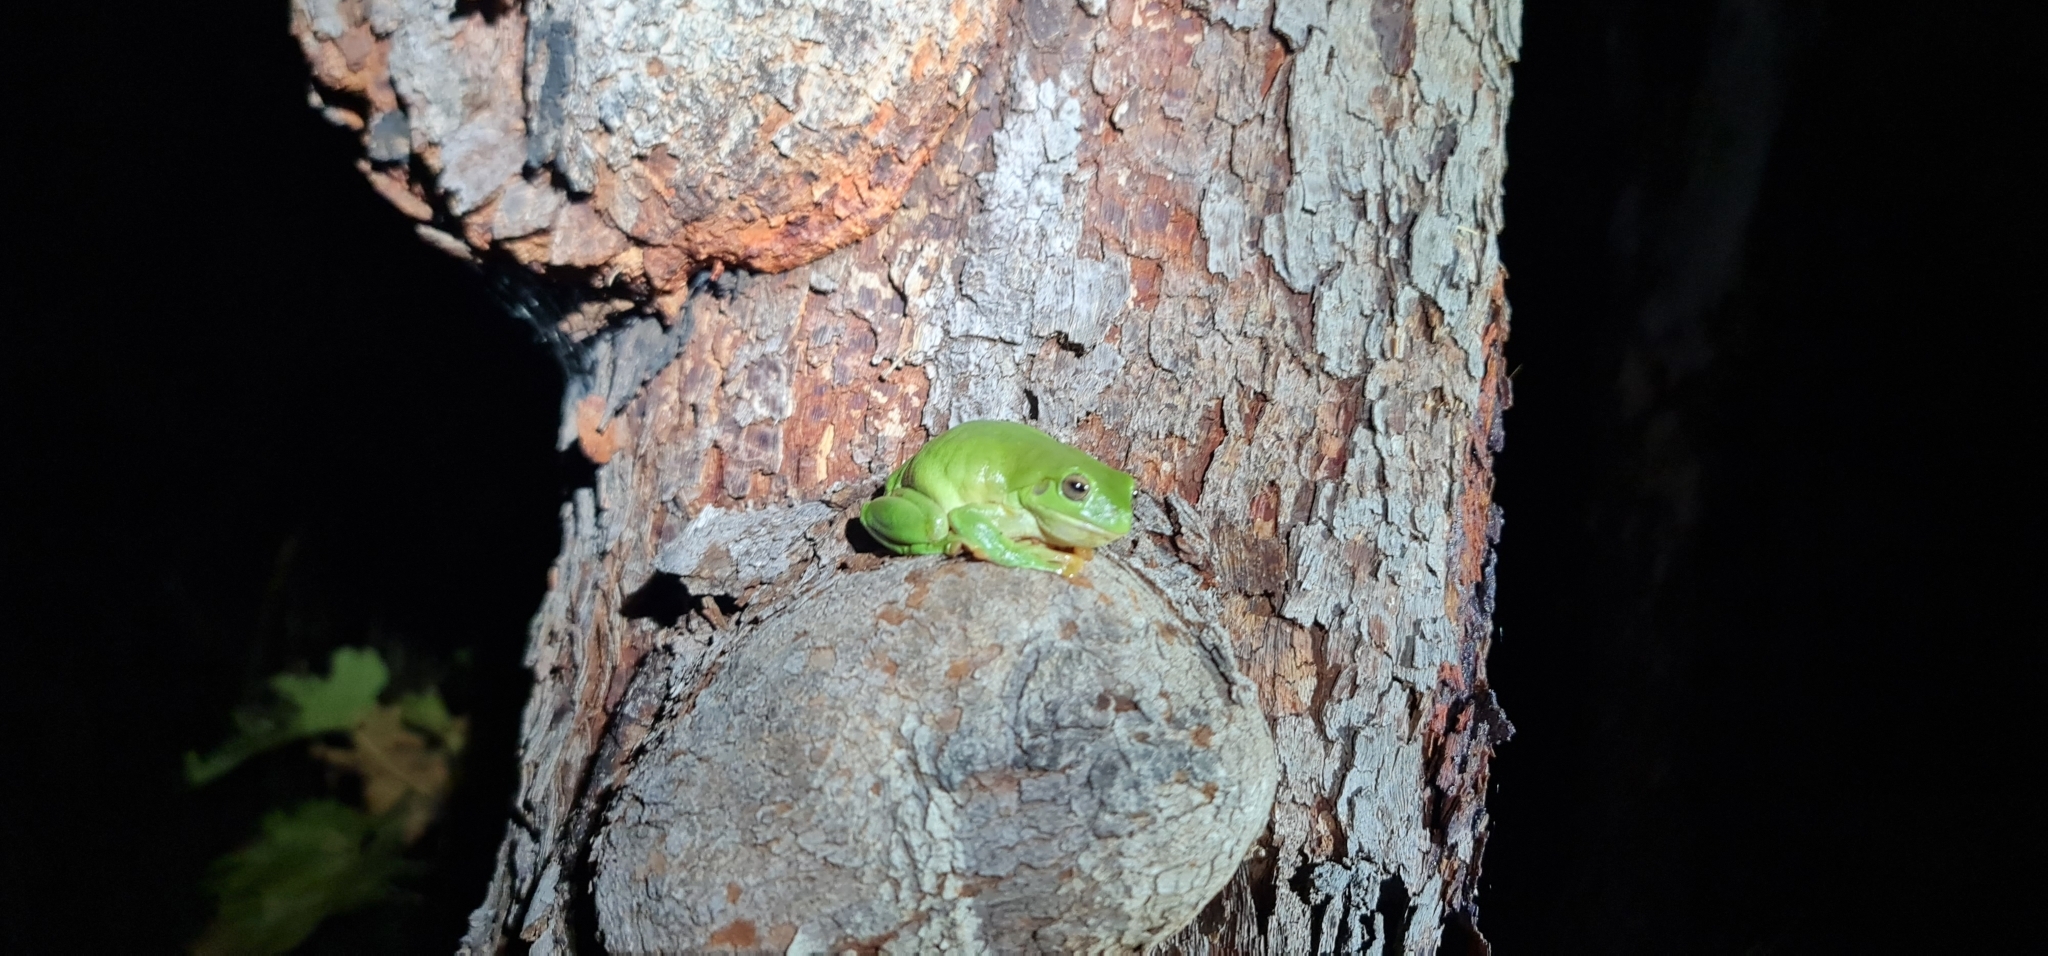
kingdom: Animalia
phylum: Chordata
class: Amphibia
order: Anura
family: Pelodryadidae
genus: Ranoidea
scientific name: Ranoidea caerulea
